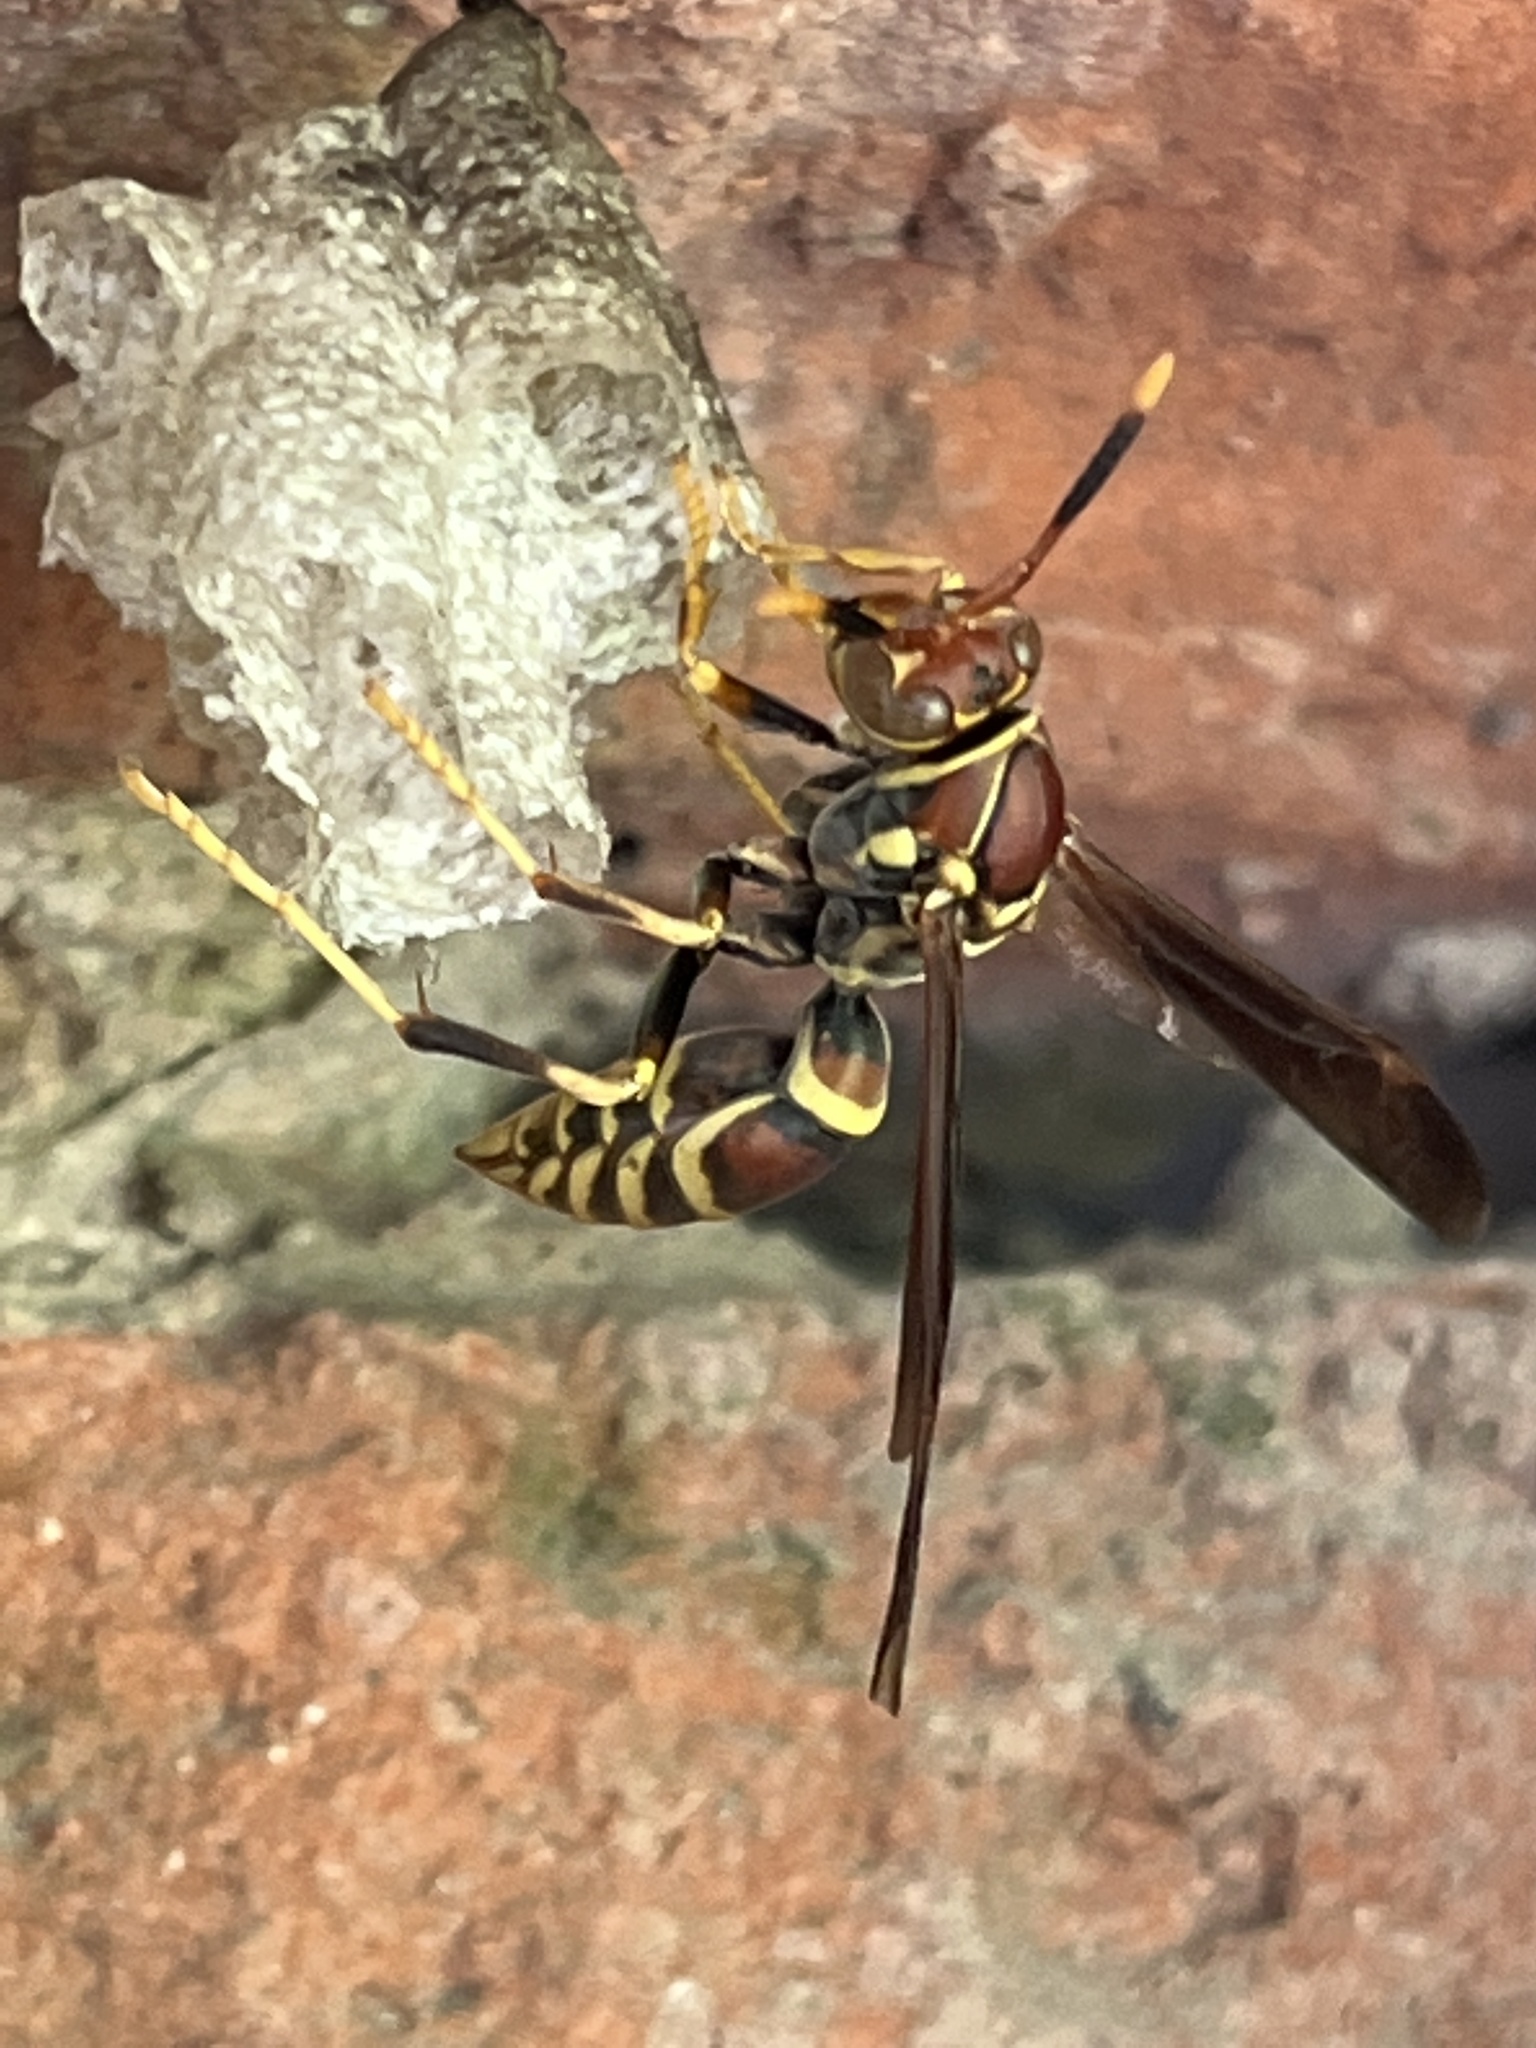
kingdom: Animalia
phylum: Arthropoda
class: Insecta
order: Hymenoptera
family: Eumenidae
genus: Polistes
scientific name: Polistes exclamans
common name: Paper wasp
